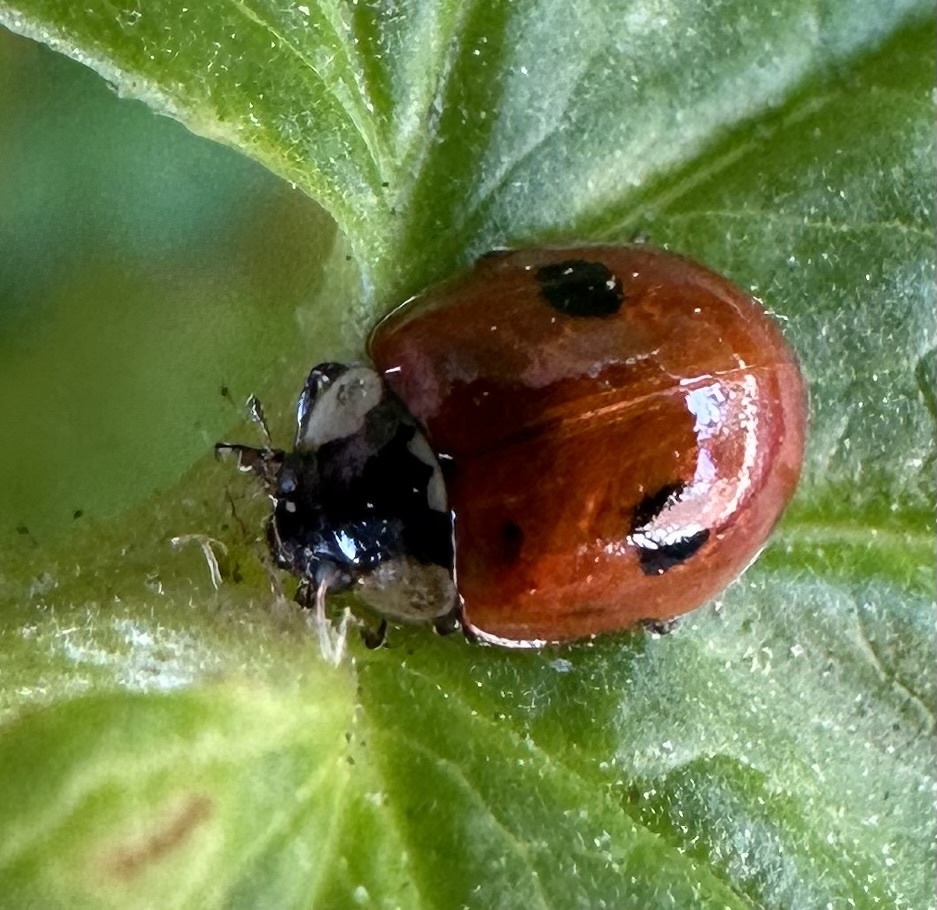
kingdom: Animalia
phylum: Arthropoda
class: Insecta
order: Coleoptera
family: Coccinellidae
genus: Adalia
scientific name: Adalia bipunctata
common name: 2-spot ladybird
